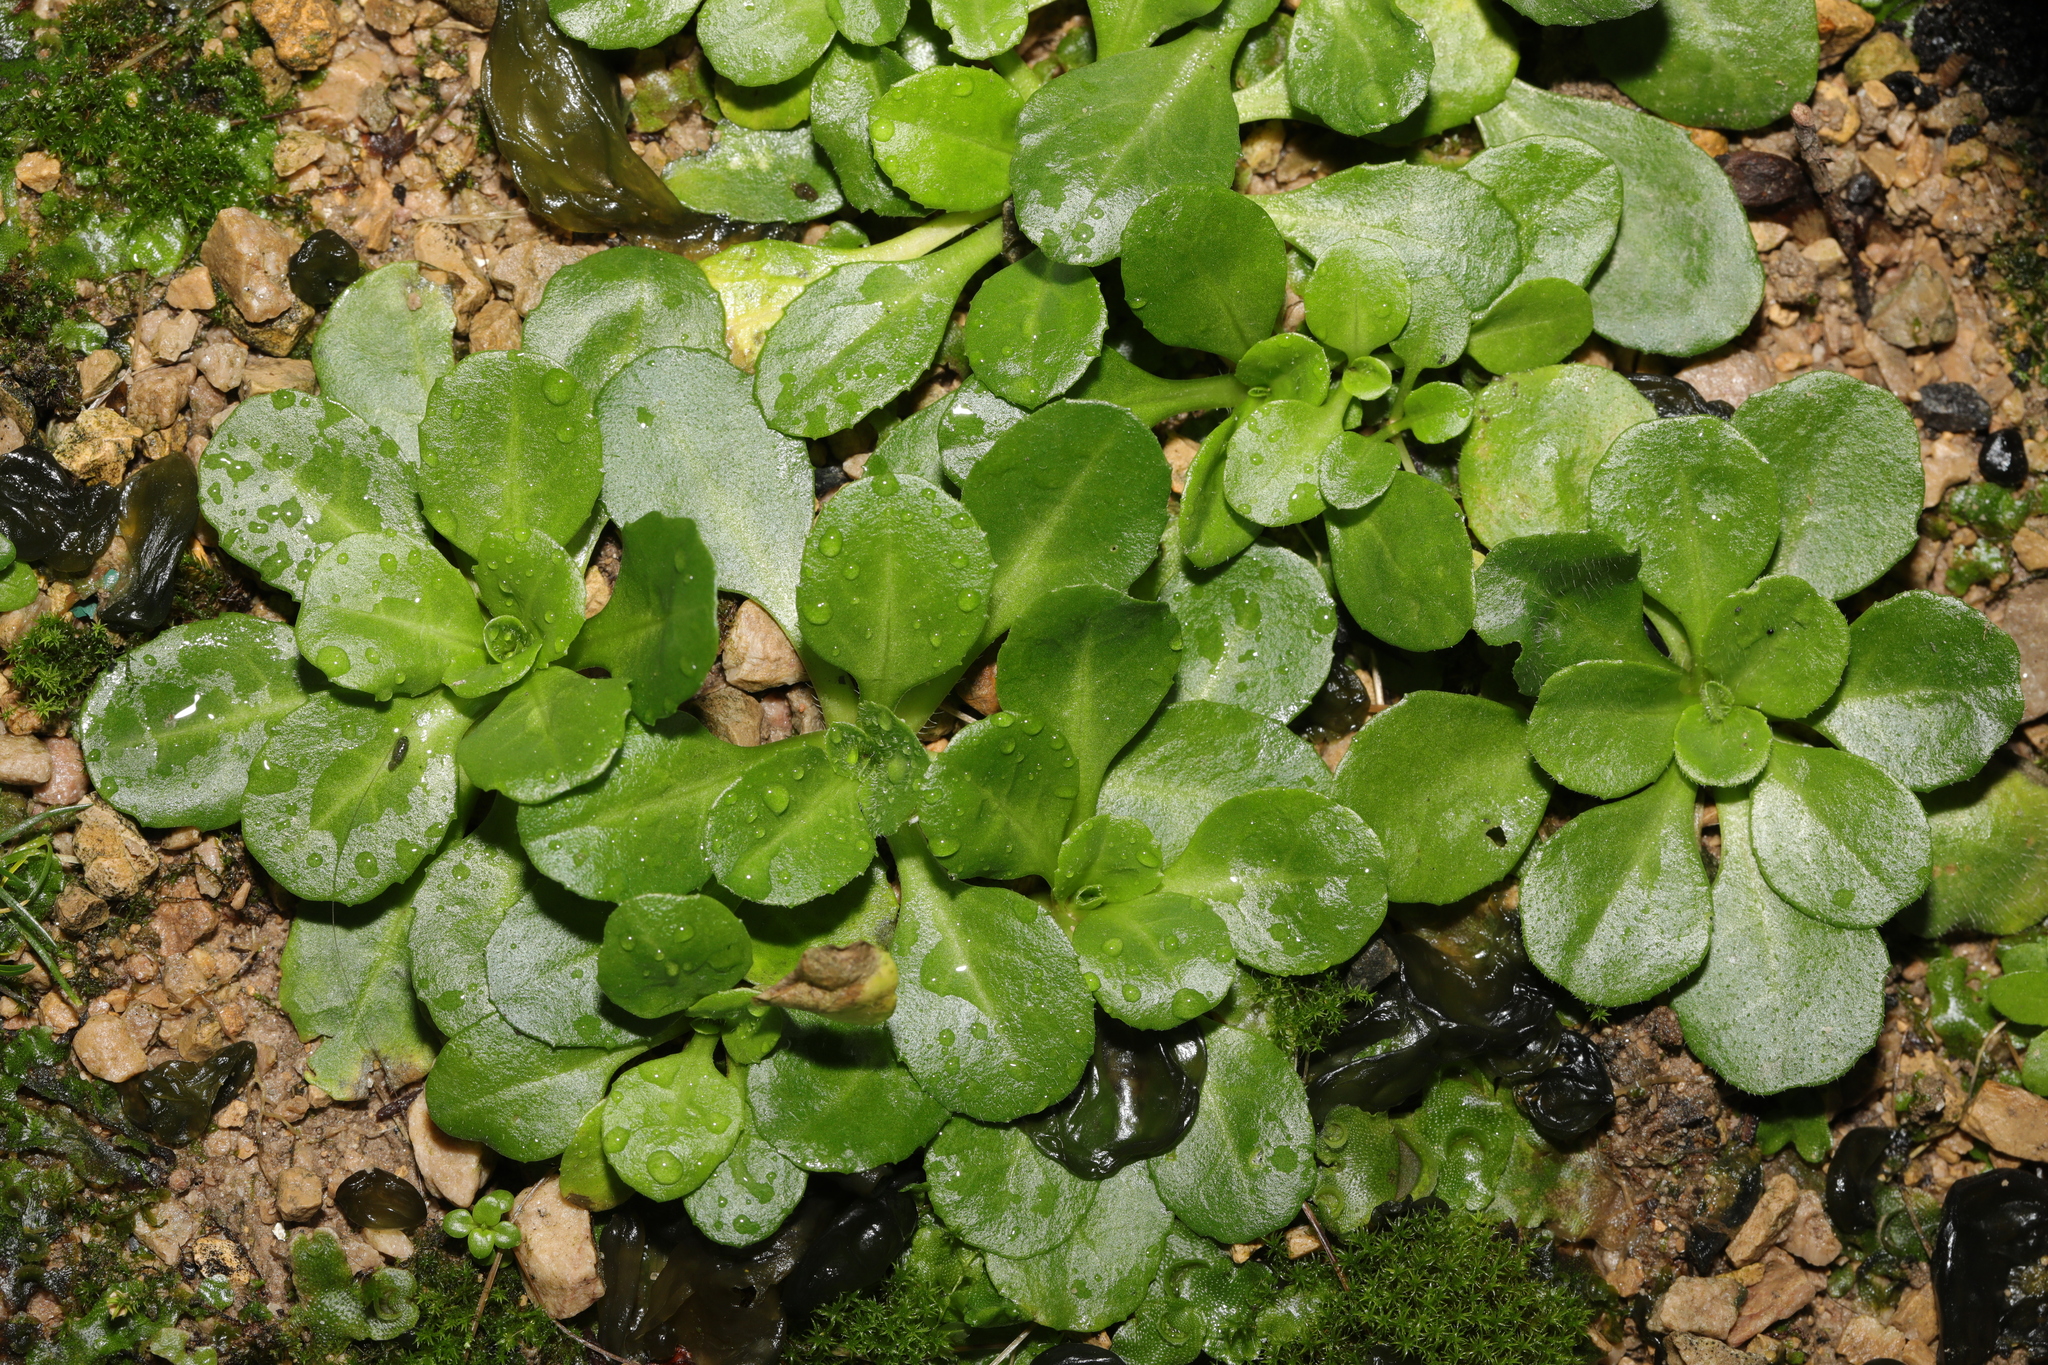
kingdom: Plantae
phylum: Tracheophyta
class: Magnoliopsida
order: Asterales
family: Asteraceae
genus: Bellis
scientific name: Bellis perennis
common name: Lawndaisy
